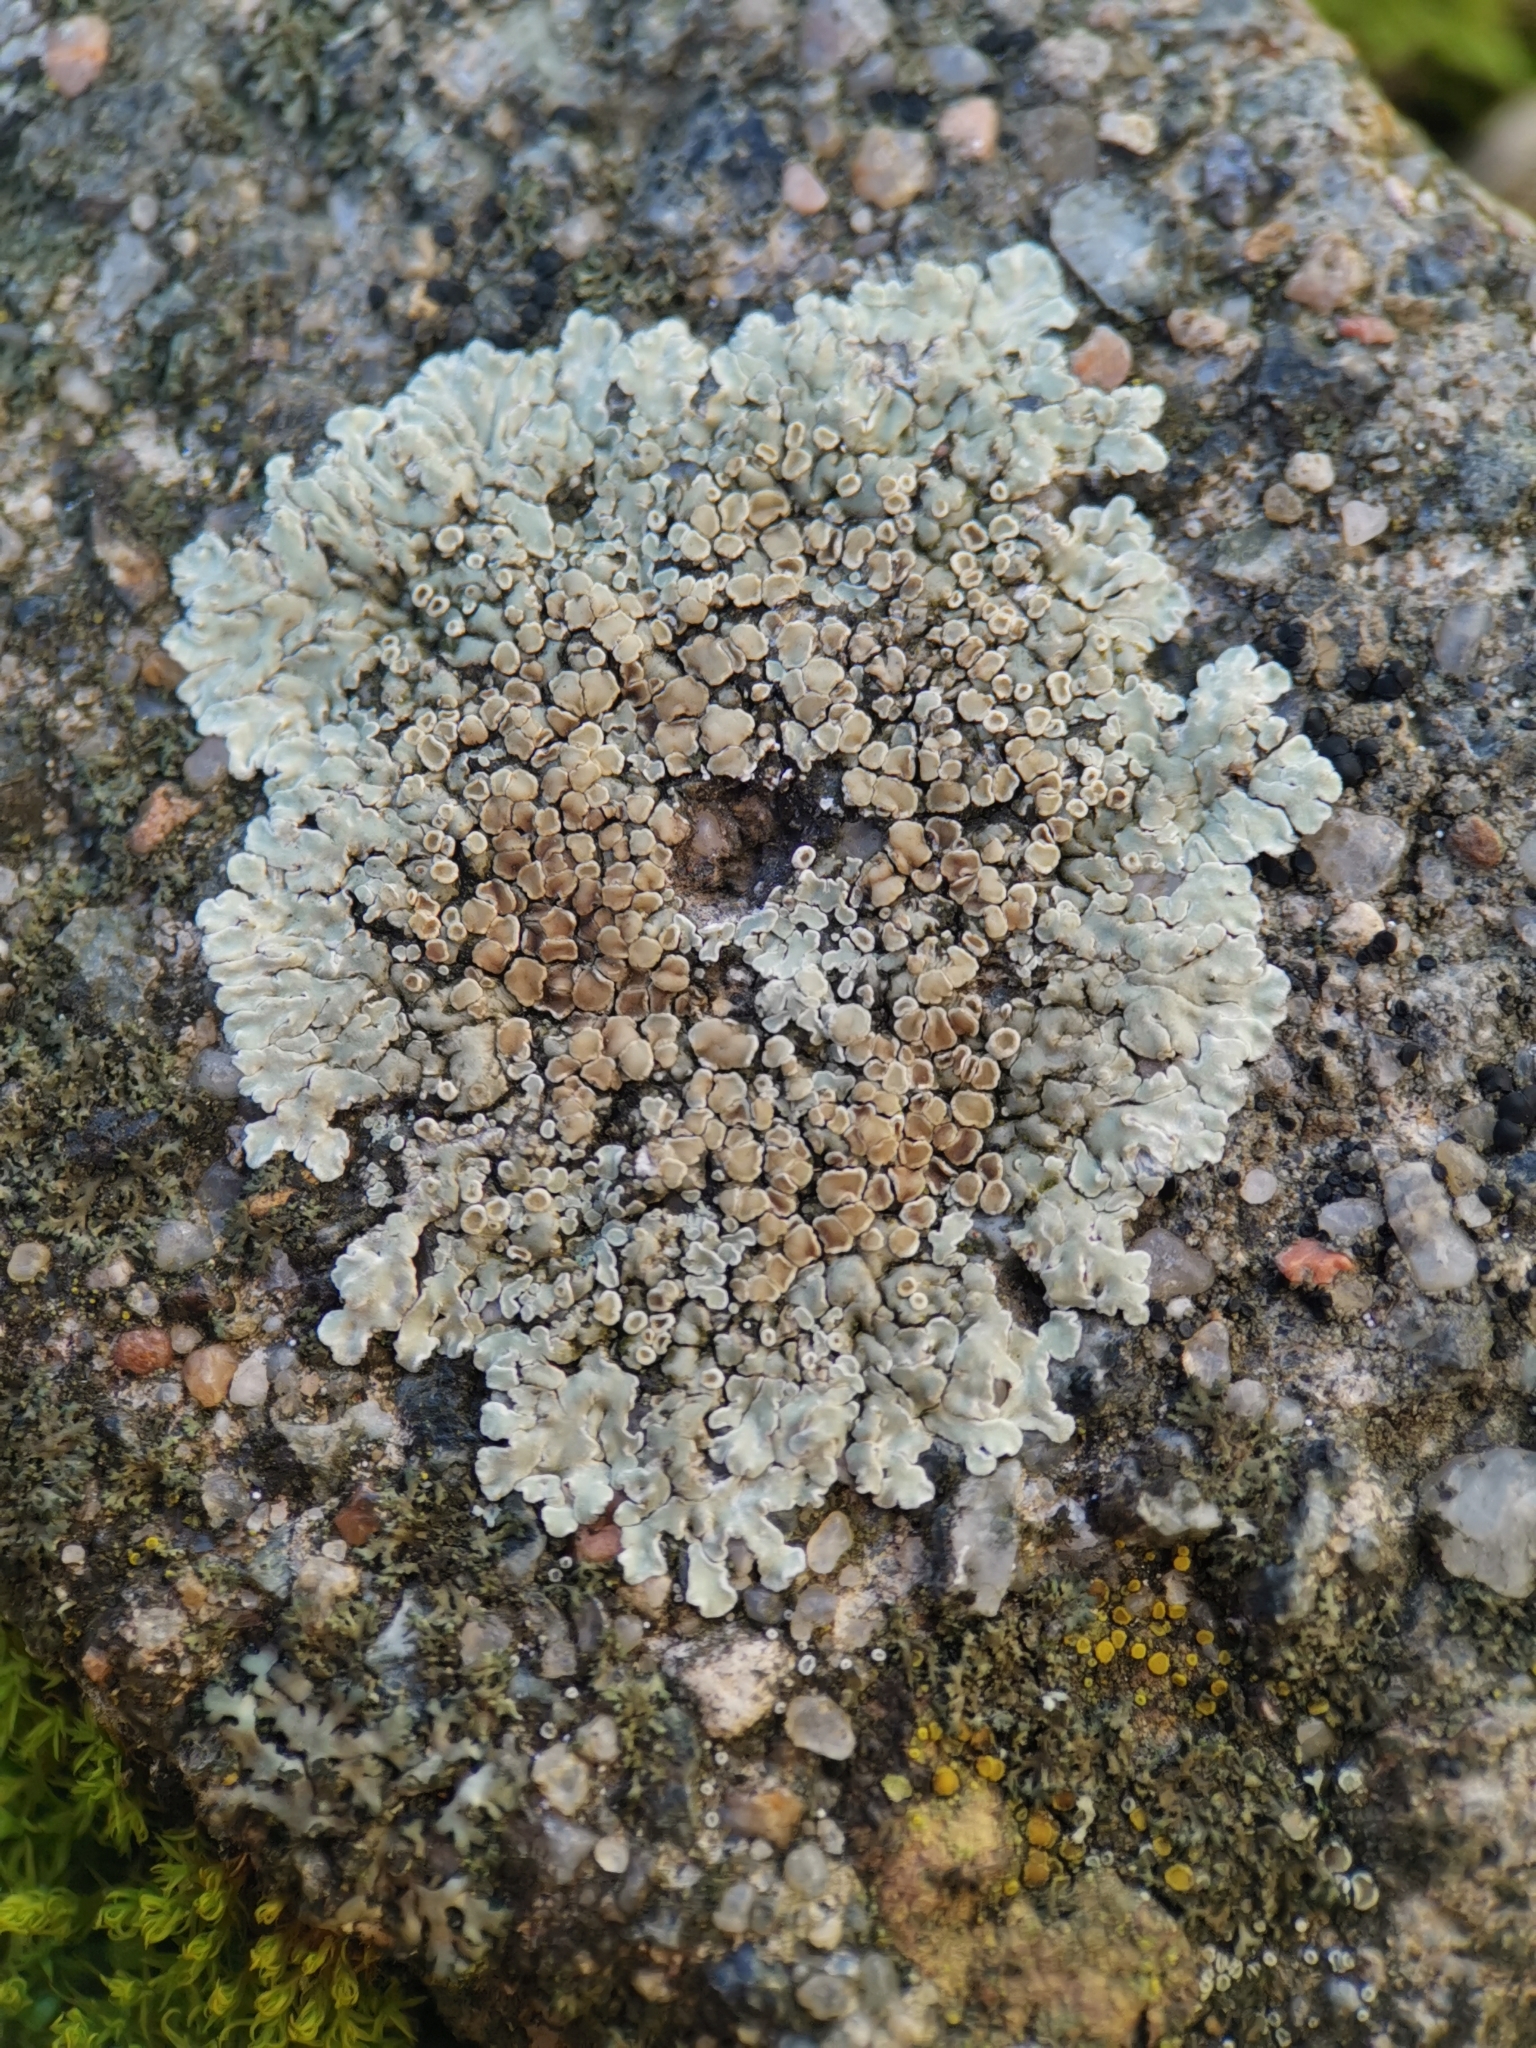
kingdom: Fungi
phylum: Ascomycota
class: Lecanoromycetes
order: Lecanorales
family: Lecanoraceae
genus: Protoparmeliopsis
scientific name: Protoparmeliopsis muralis
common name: Stonewall rim lichen
